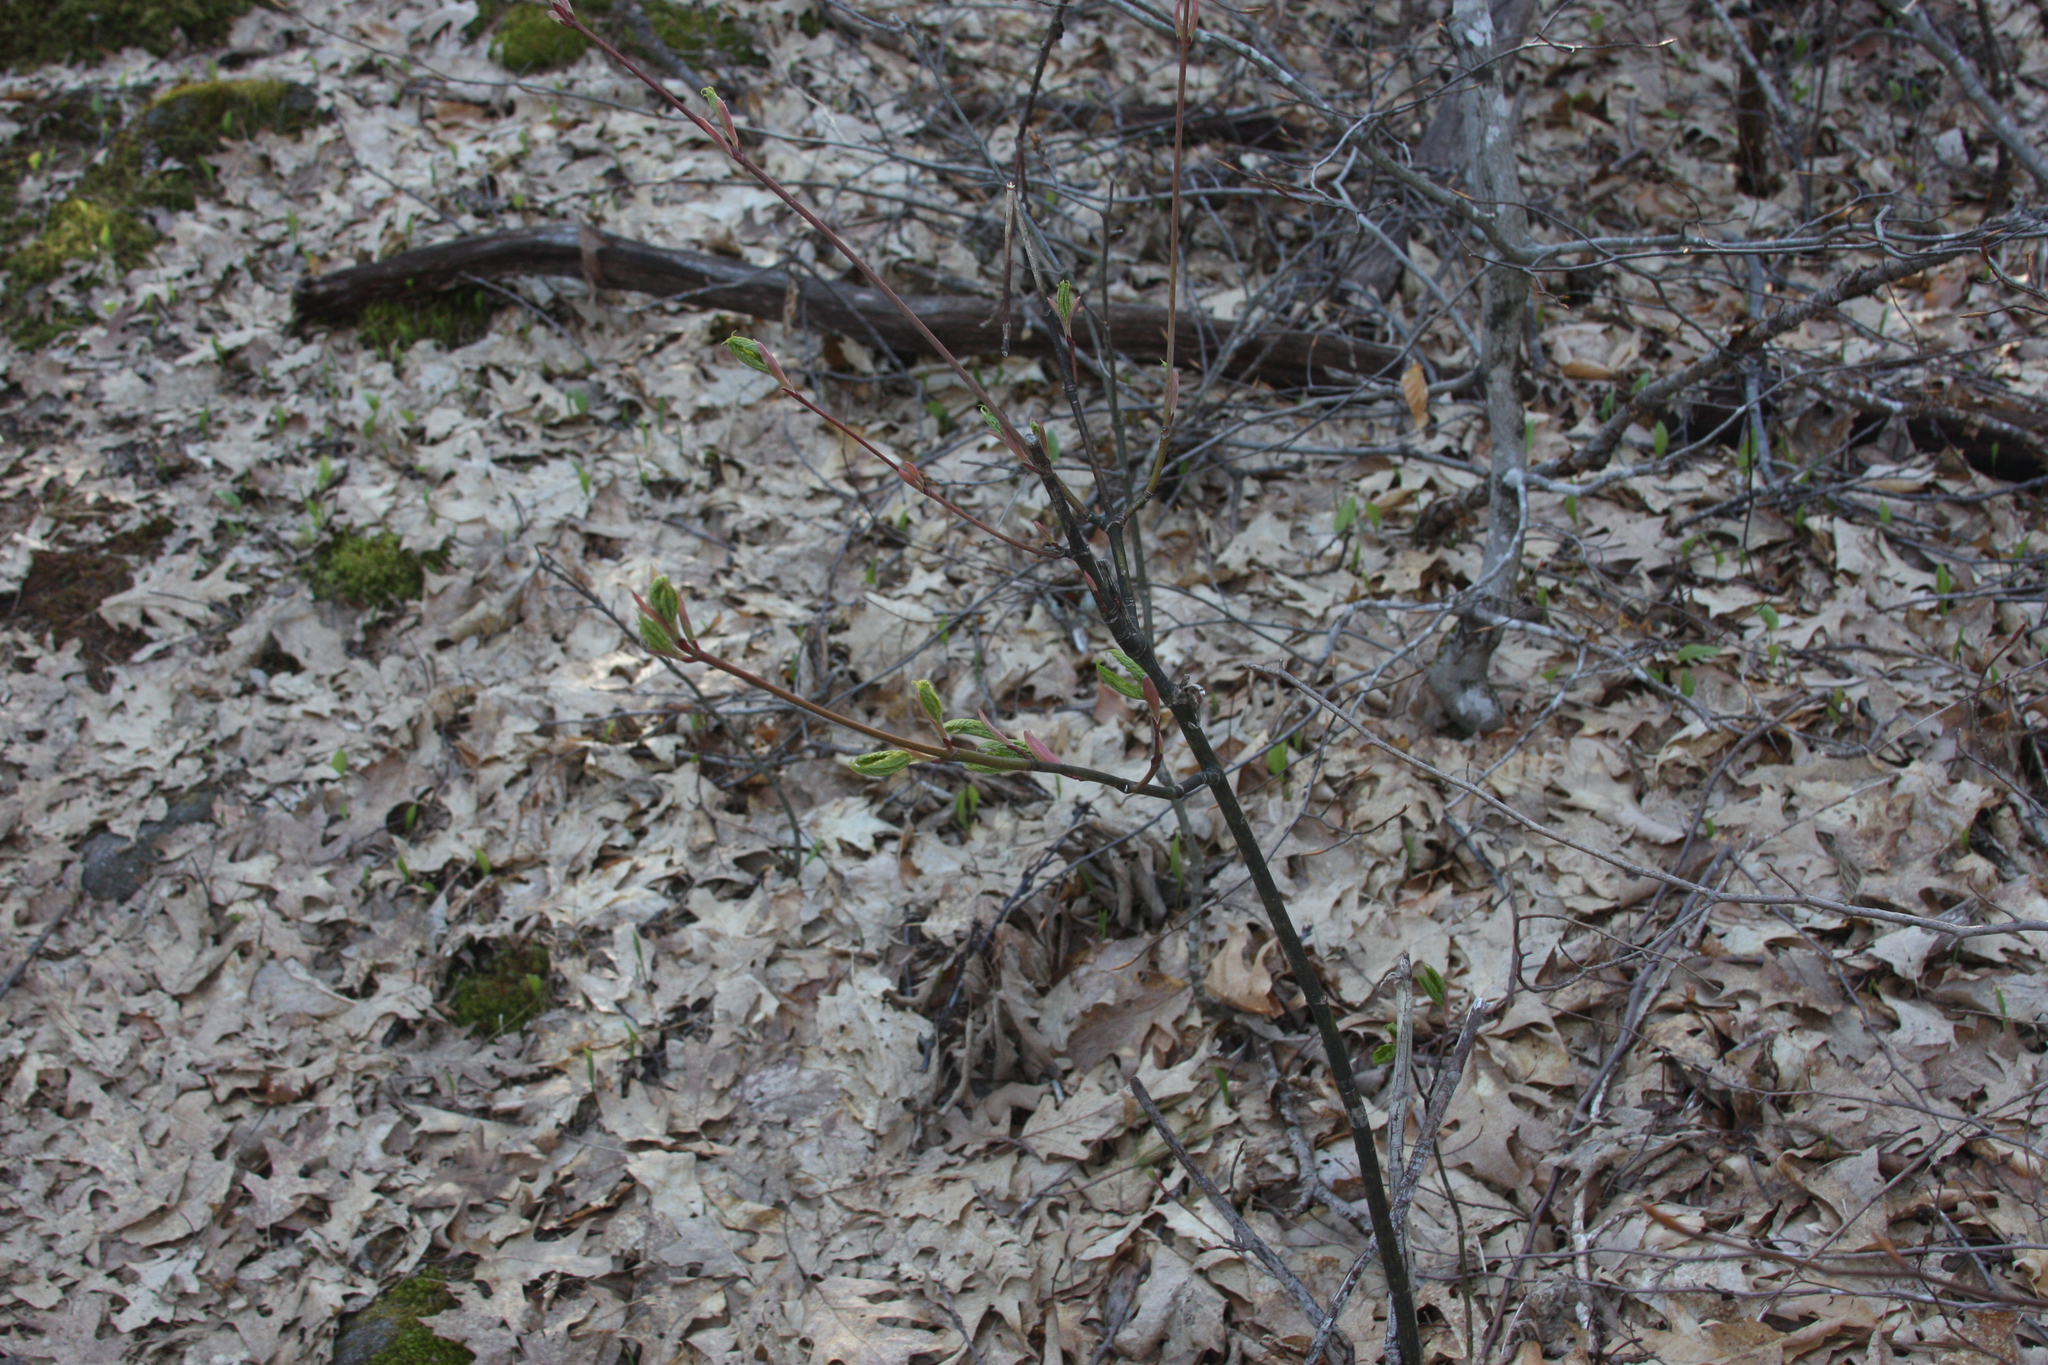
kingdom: Plantae
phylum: Tracheophyta
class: Magnoliopsida
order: Sapindales
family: Sapindaceae
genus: Acer
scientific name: Acer pensylvanicum
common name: Moosewood
